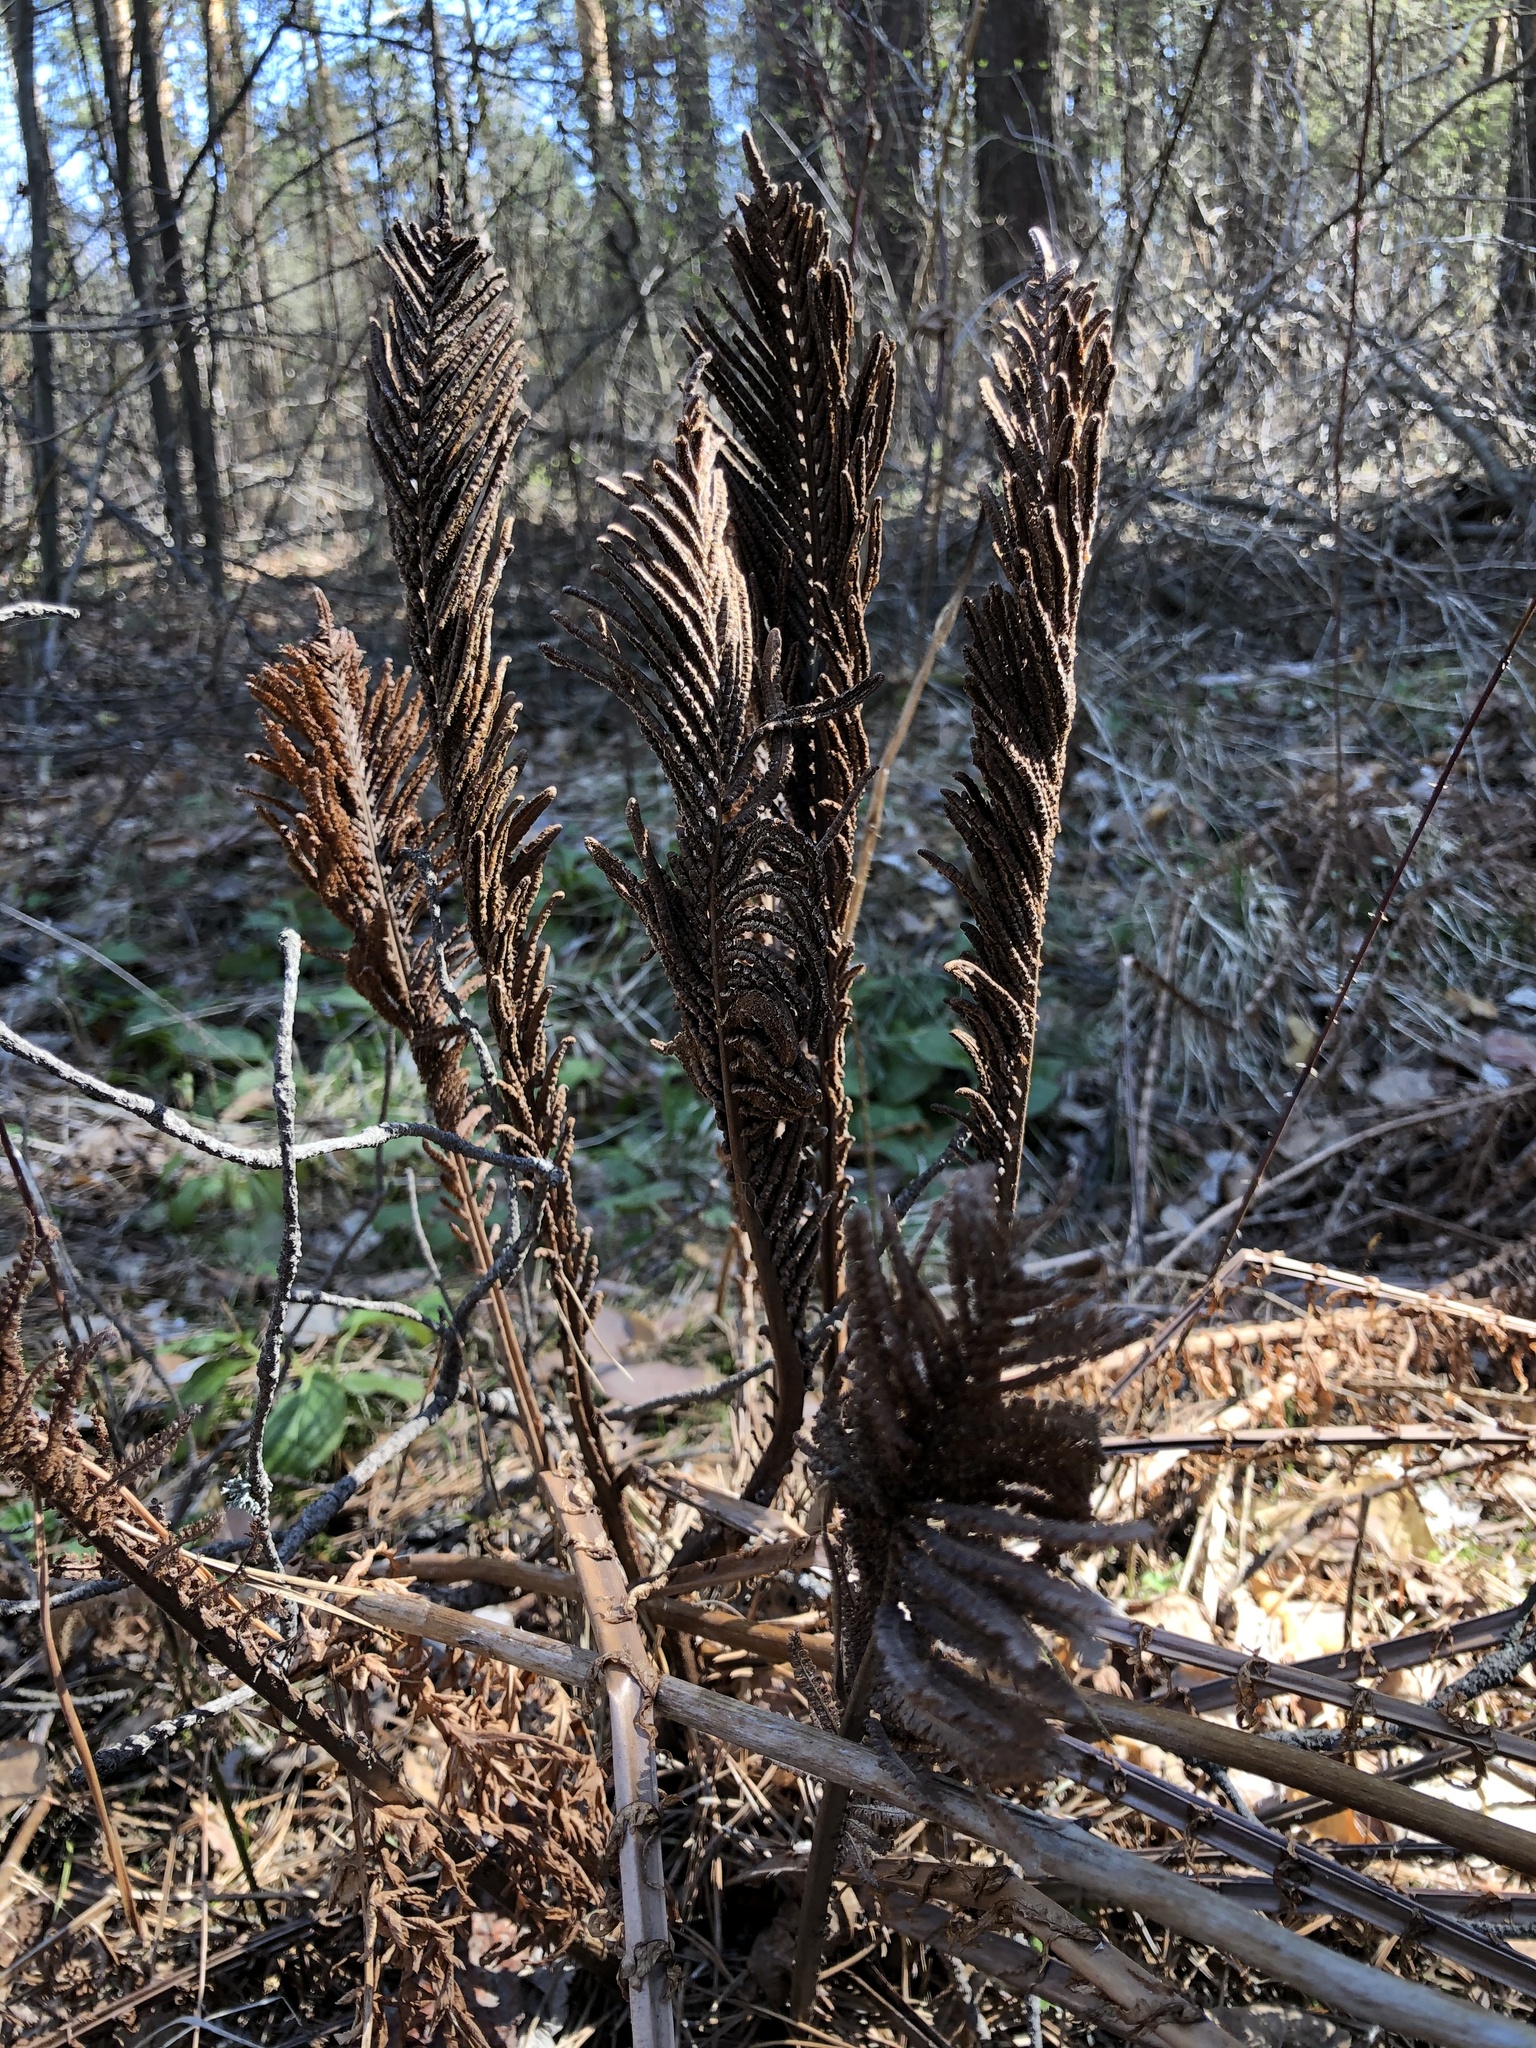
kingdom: Plantae
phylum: Tracheophyta
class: Polypodiopsida
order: Polypodiales
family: Onocleaceae
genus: Matteuccia
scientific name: Matteuccia struthiopteris
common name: Ostrich fern
